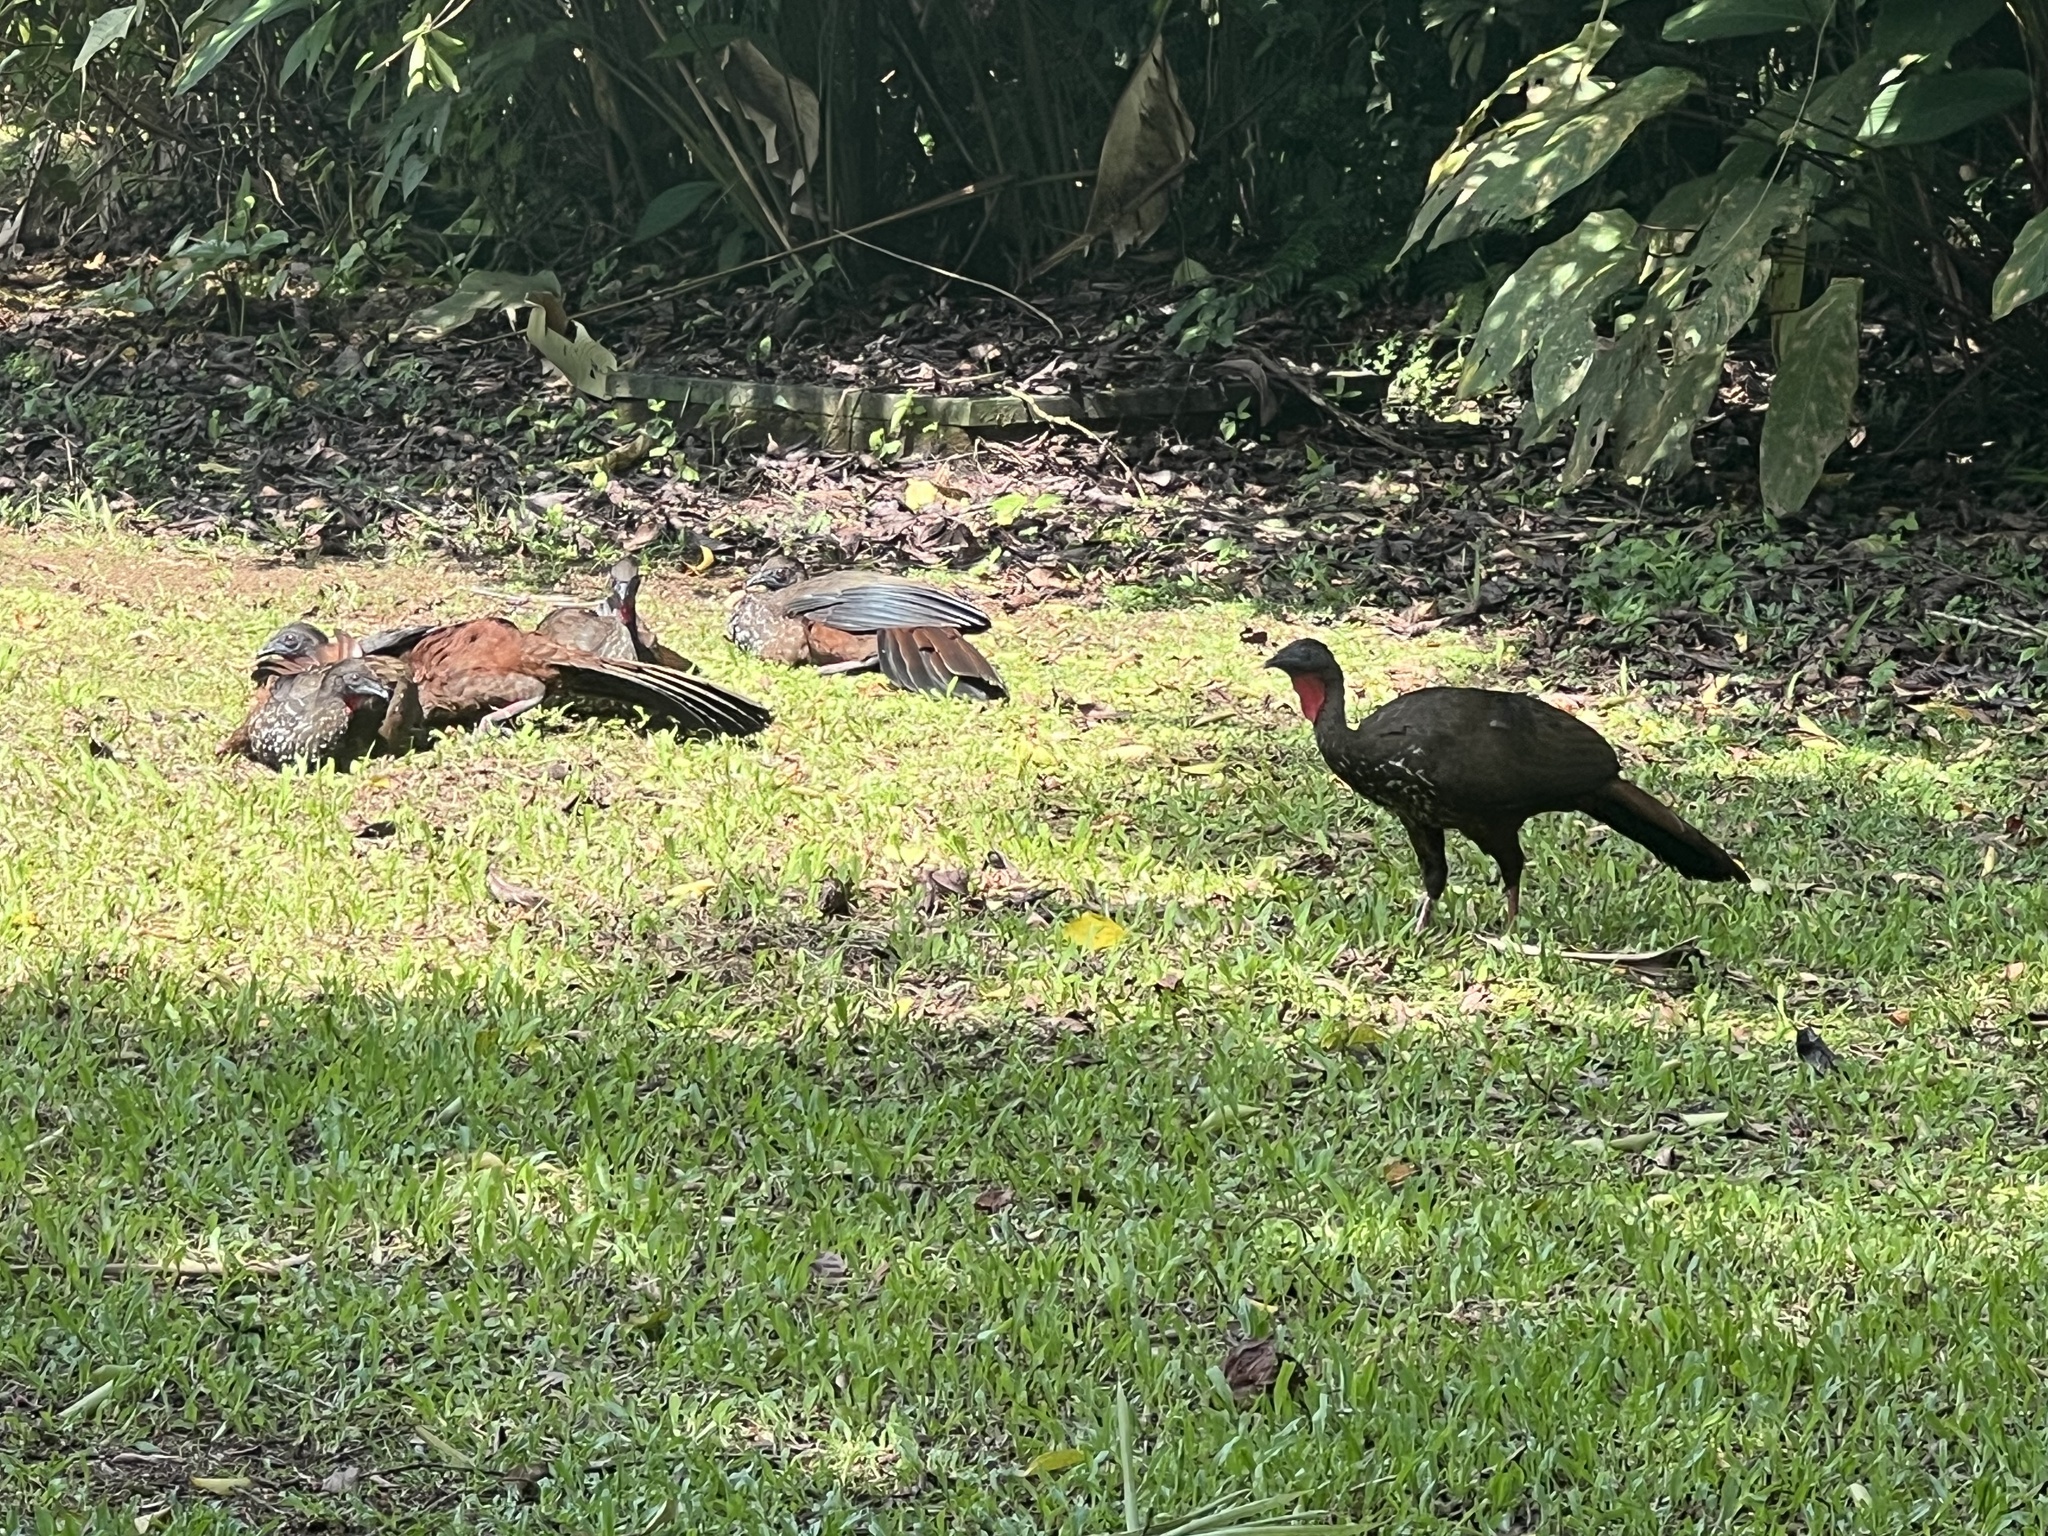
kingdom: Animalia
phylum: Chordata
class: Aves
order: Galliformes
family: Cracidae
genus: Penelope
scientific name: Penelope purpurascens
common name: Crested guan
